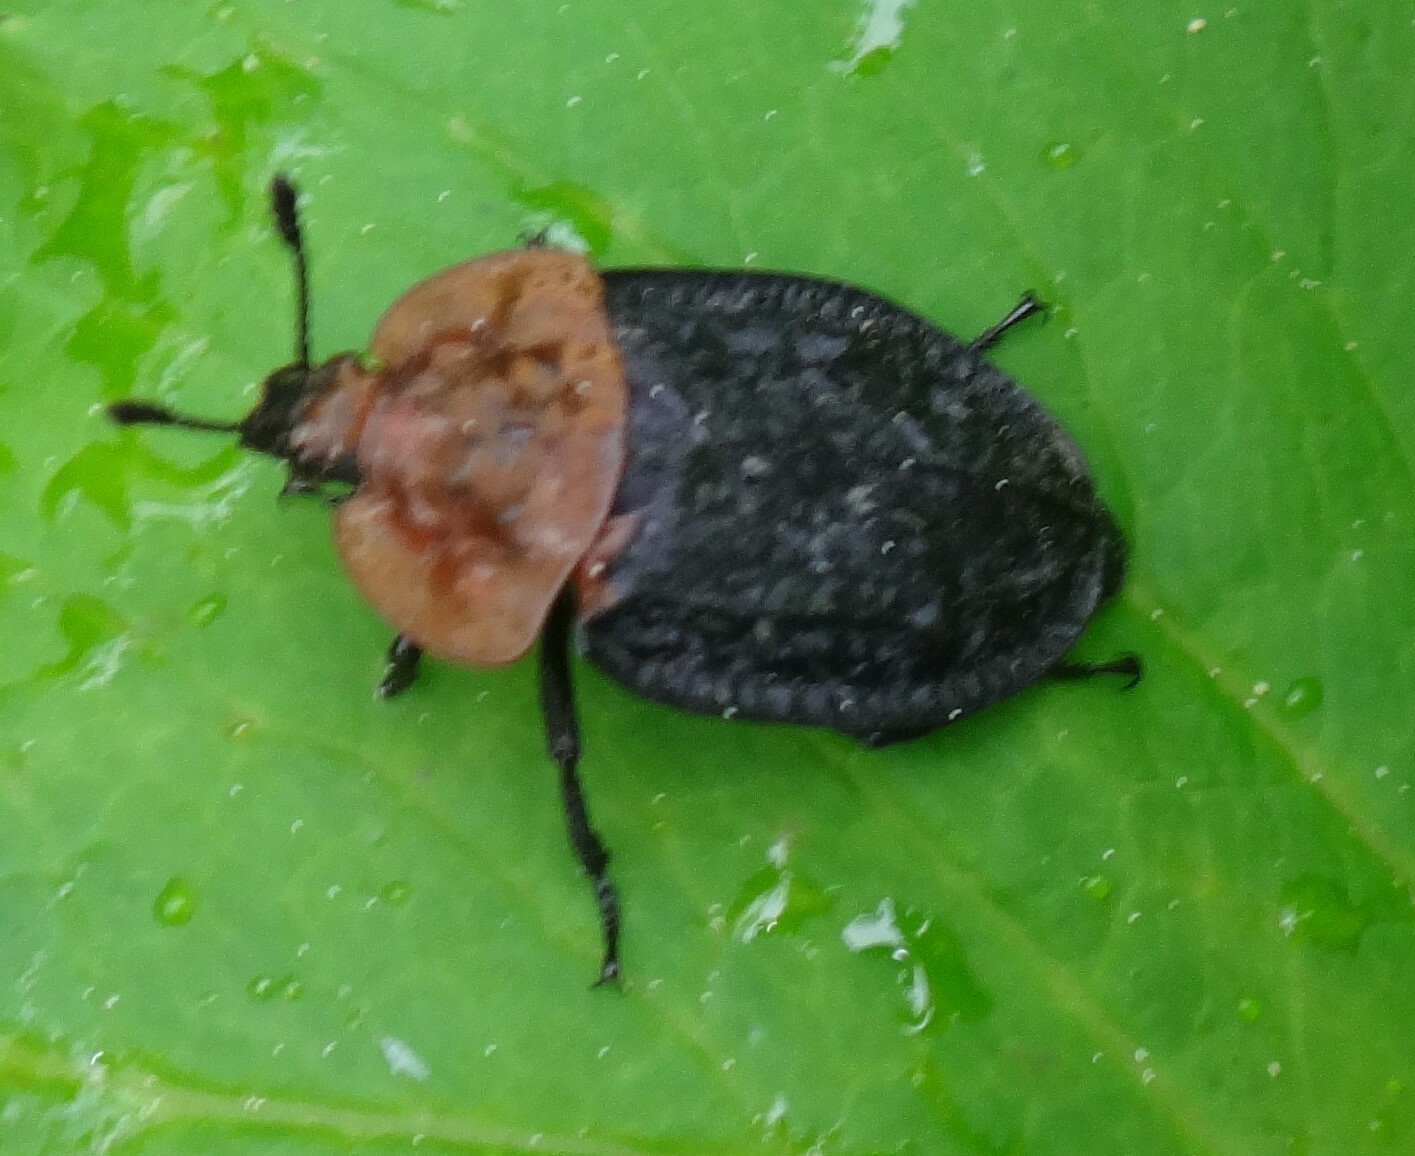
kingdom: Animalia
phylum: Arthropoda
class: Insecta
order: Coleoptera
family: Staphylinidae
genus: Oiceoptoma
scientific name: Oiceoptoma thoracicum
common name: Red-breasted carrion beetle
